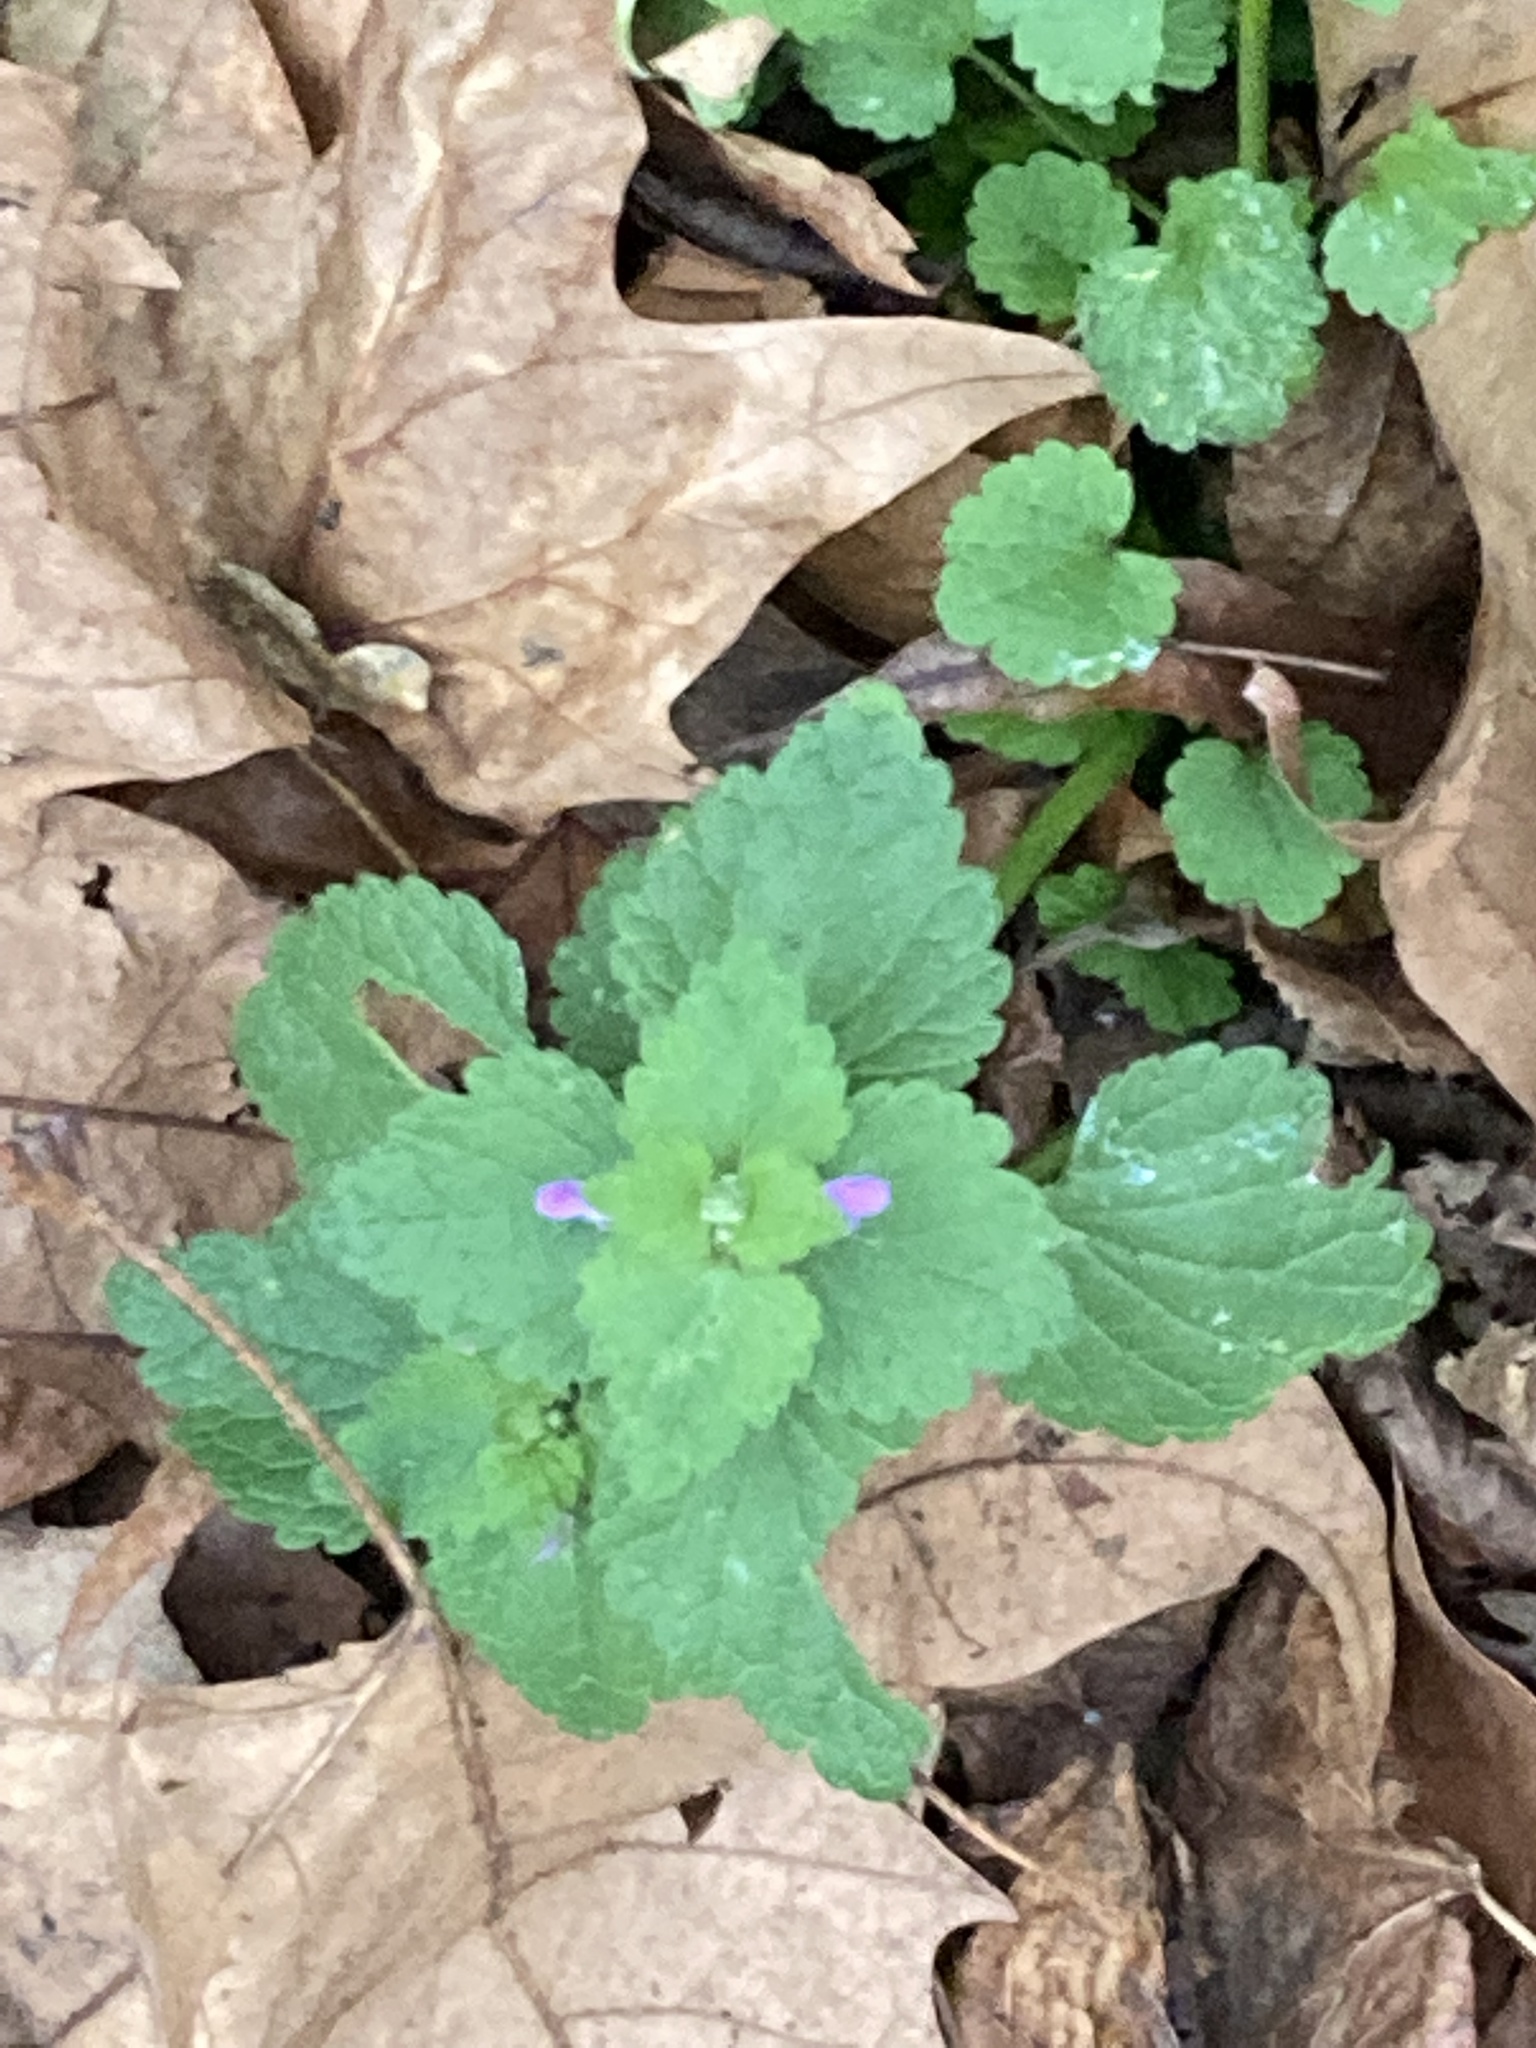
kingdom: Plantae
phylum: Tracheophyta
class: Magnoliopsida
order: Lamiales
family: Lamiaceae
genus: Lamium
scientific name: Lamium purpureum
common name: Red dead-nettle
